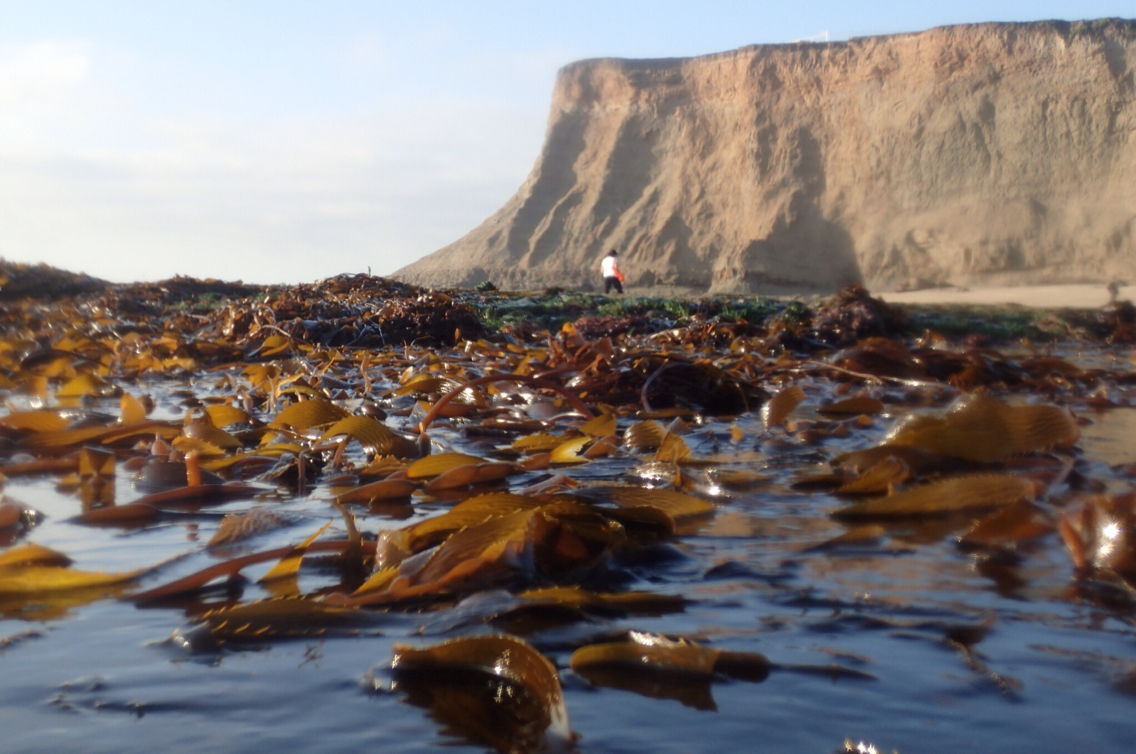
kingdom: Chromista
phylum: Ochrophyta
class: Phaeophyceae
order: Laminariales
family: Laminariaceae
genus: Macrocystis
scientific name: Macrocystis pyrifera
